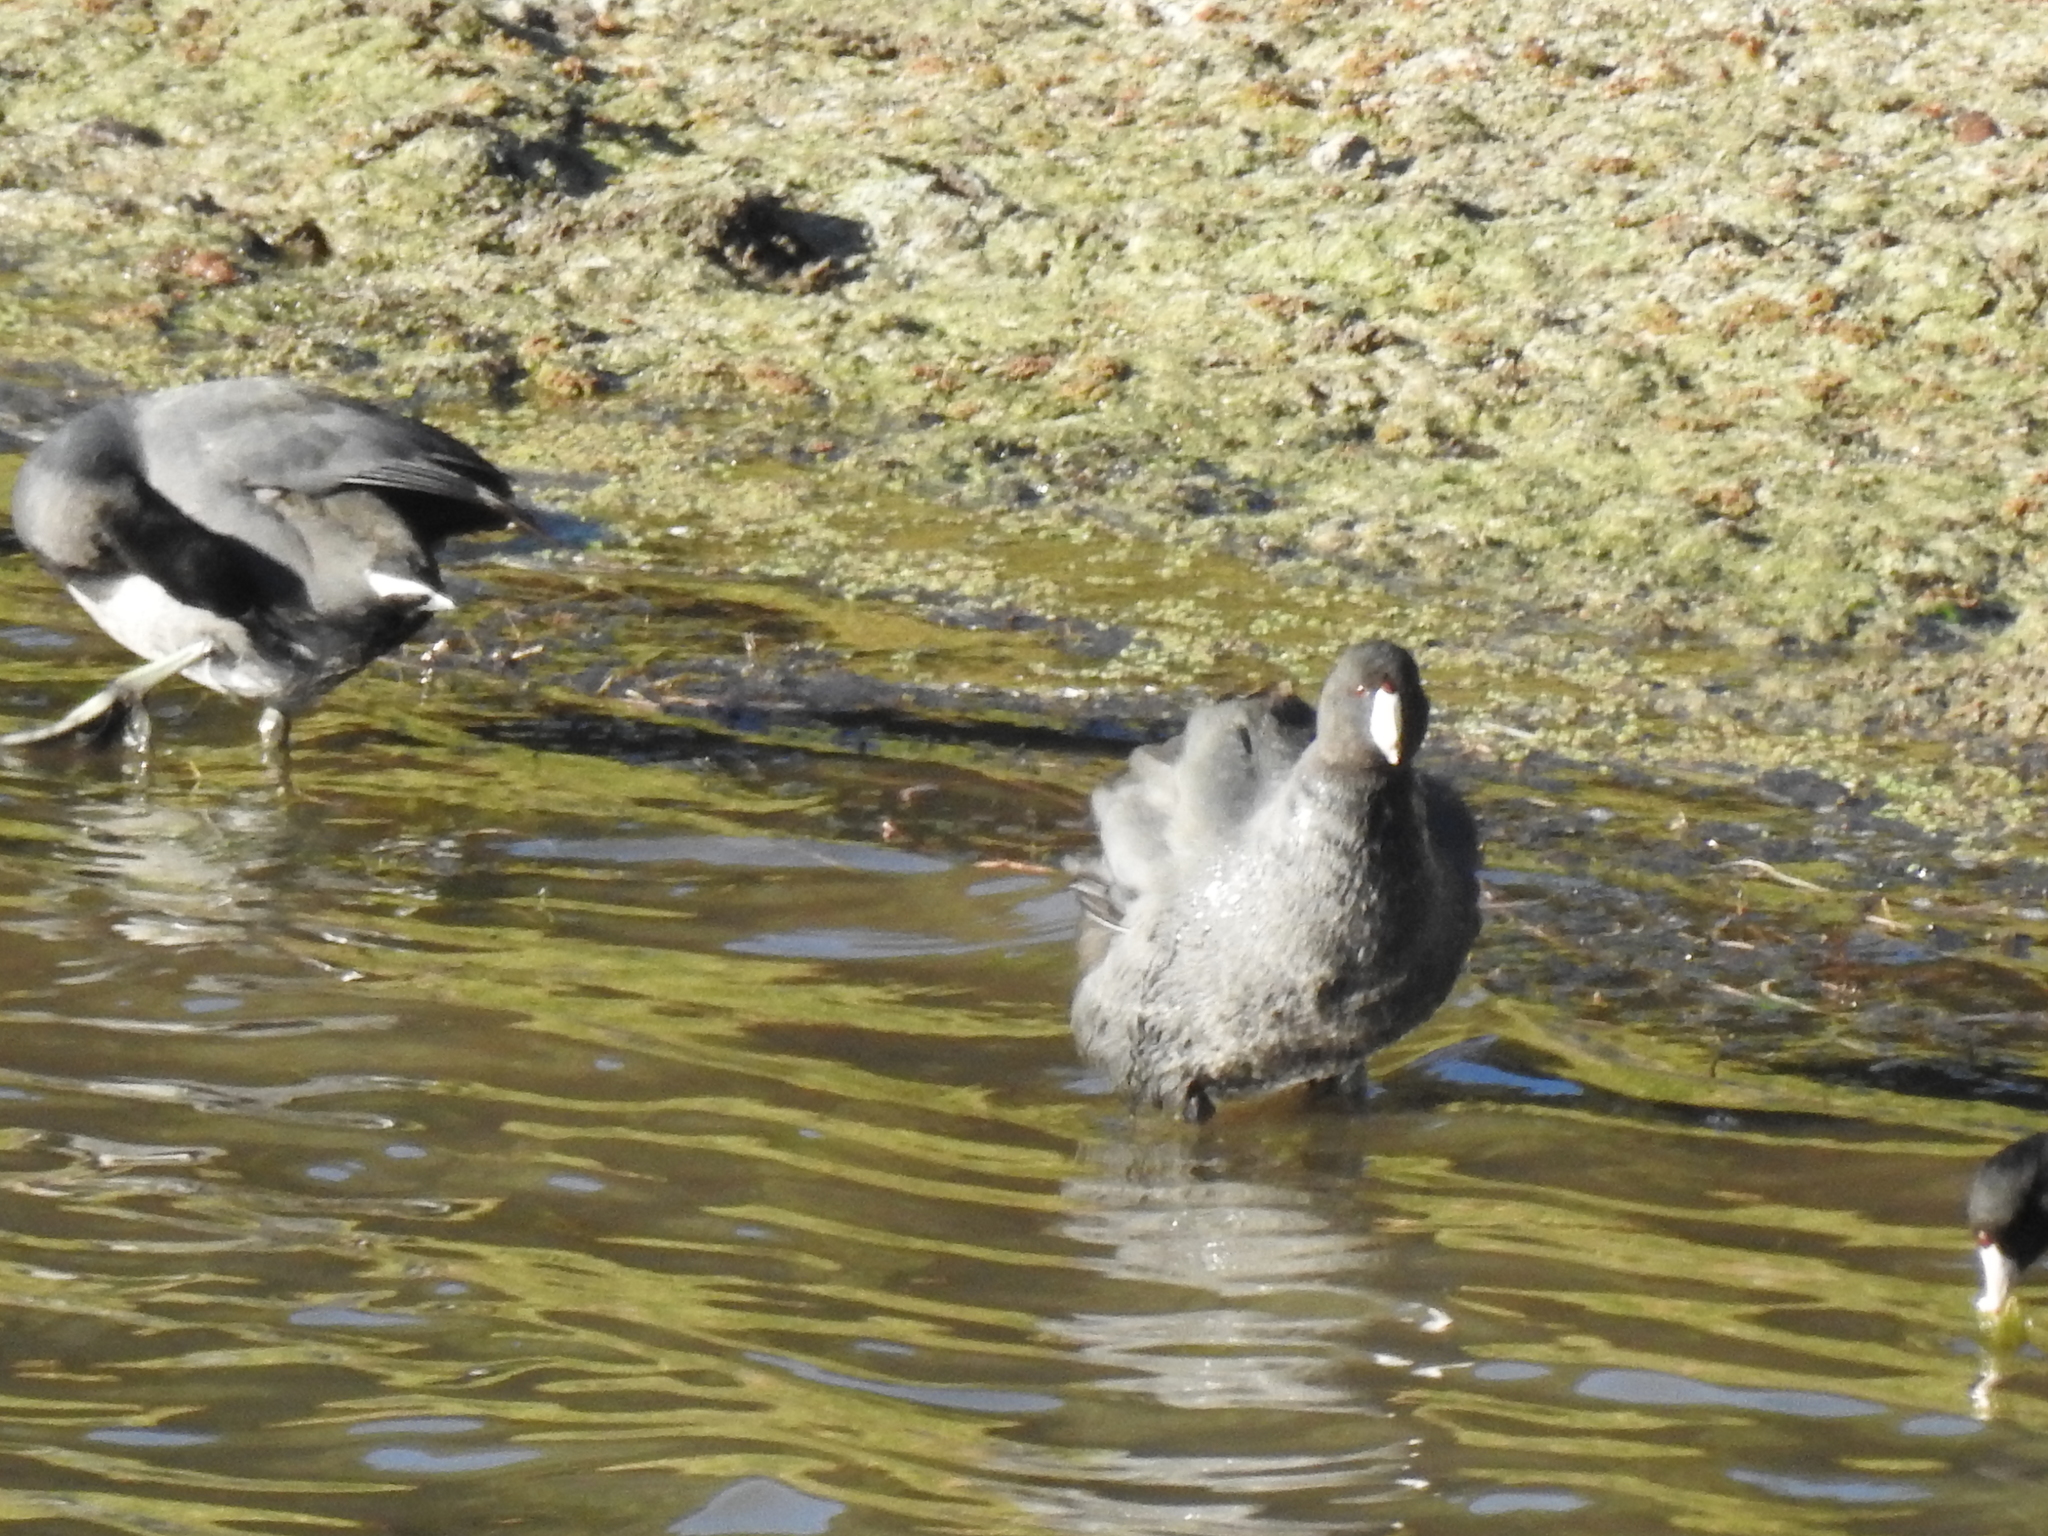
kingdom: Animalia
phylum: Chordata
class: Aves
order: Gruiformes
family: Rallidae
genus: Fulica
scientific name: Fulica americana
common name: American coot
